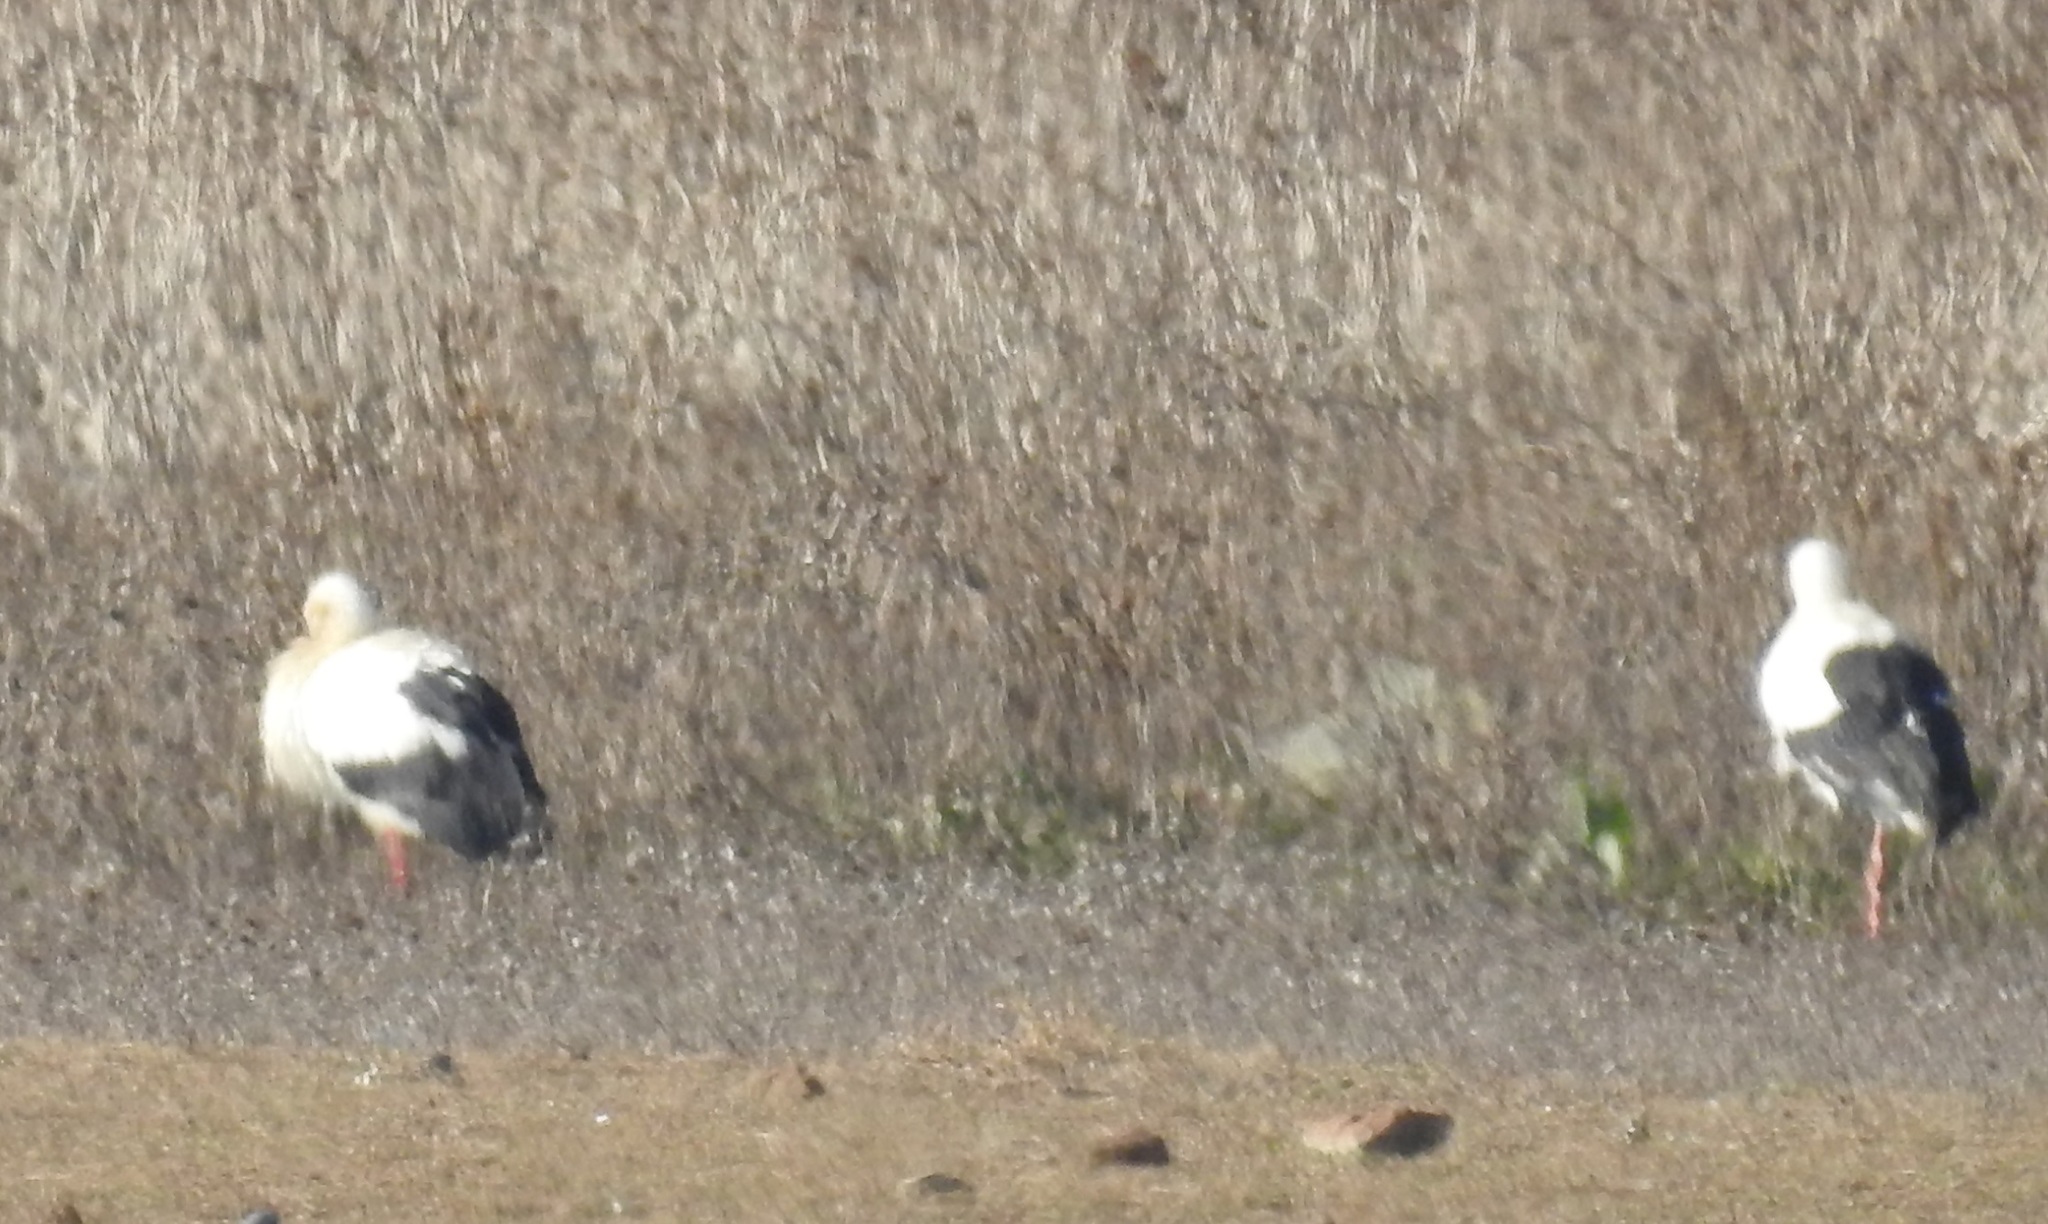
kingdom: Animalia
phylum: Chordata
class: Aves
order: Ciconiiformes
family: Ciconiidae
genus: Ciconia
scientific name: Ciconia ciconia
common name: White stork
